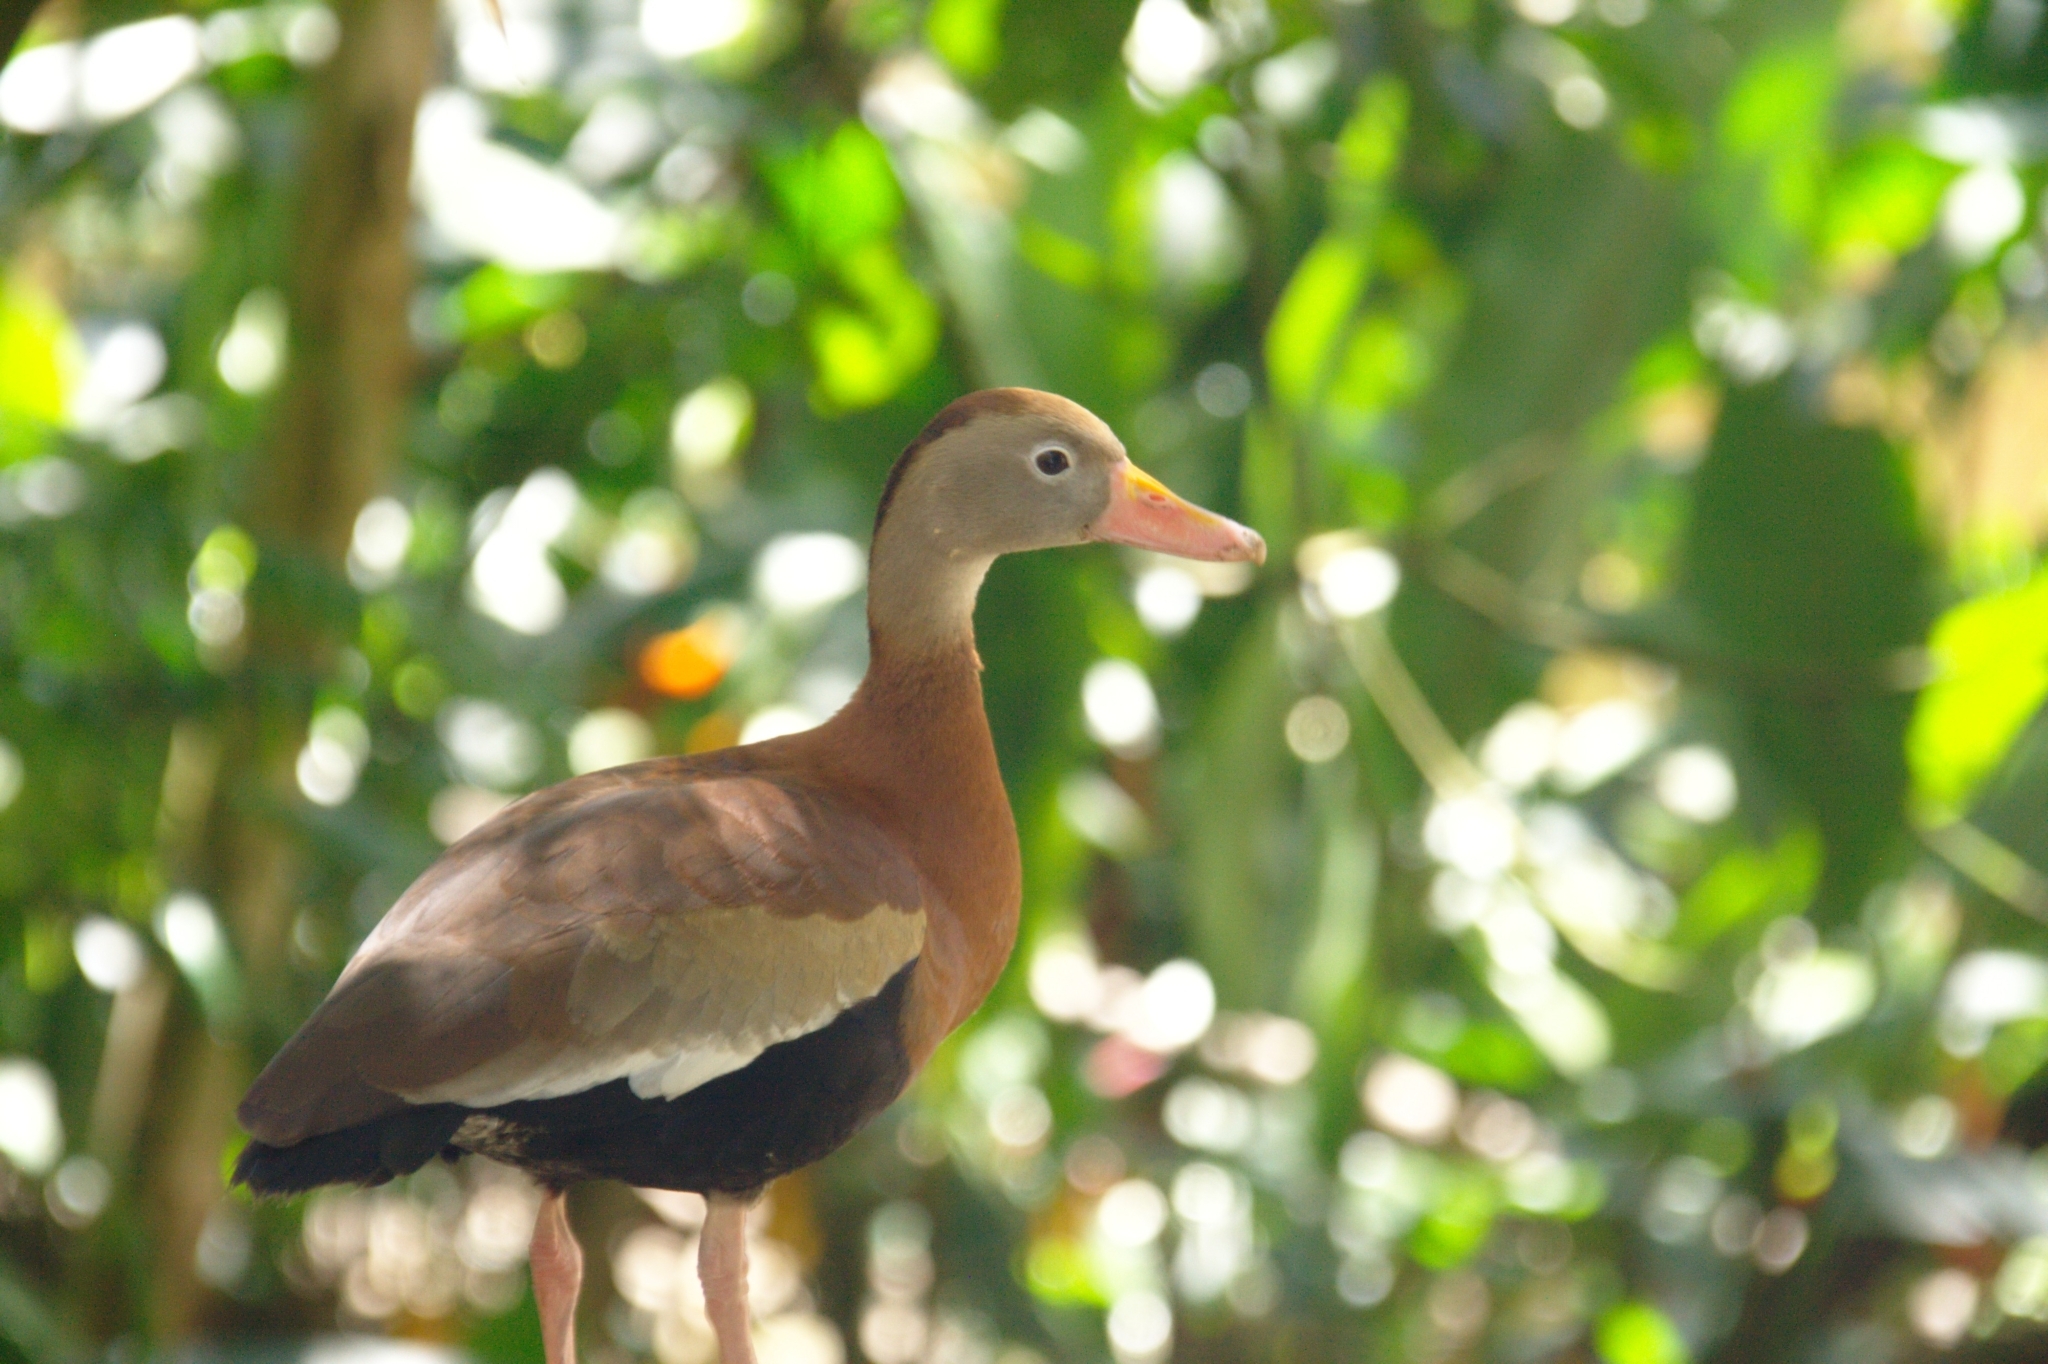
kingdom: Animalia
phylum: Chordata
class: Aves
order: Anseriformes
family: Anatidae
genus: Dendrocygna
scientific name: Dendrocygna autumnalis
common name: Black-bellied whistling duck
